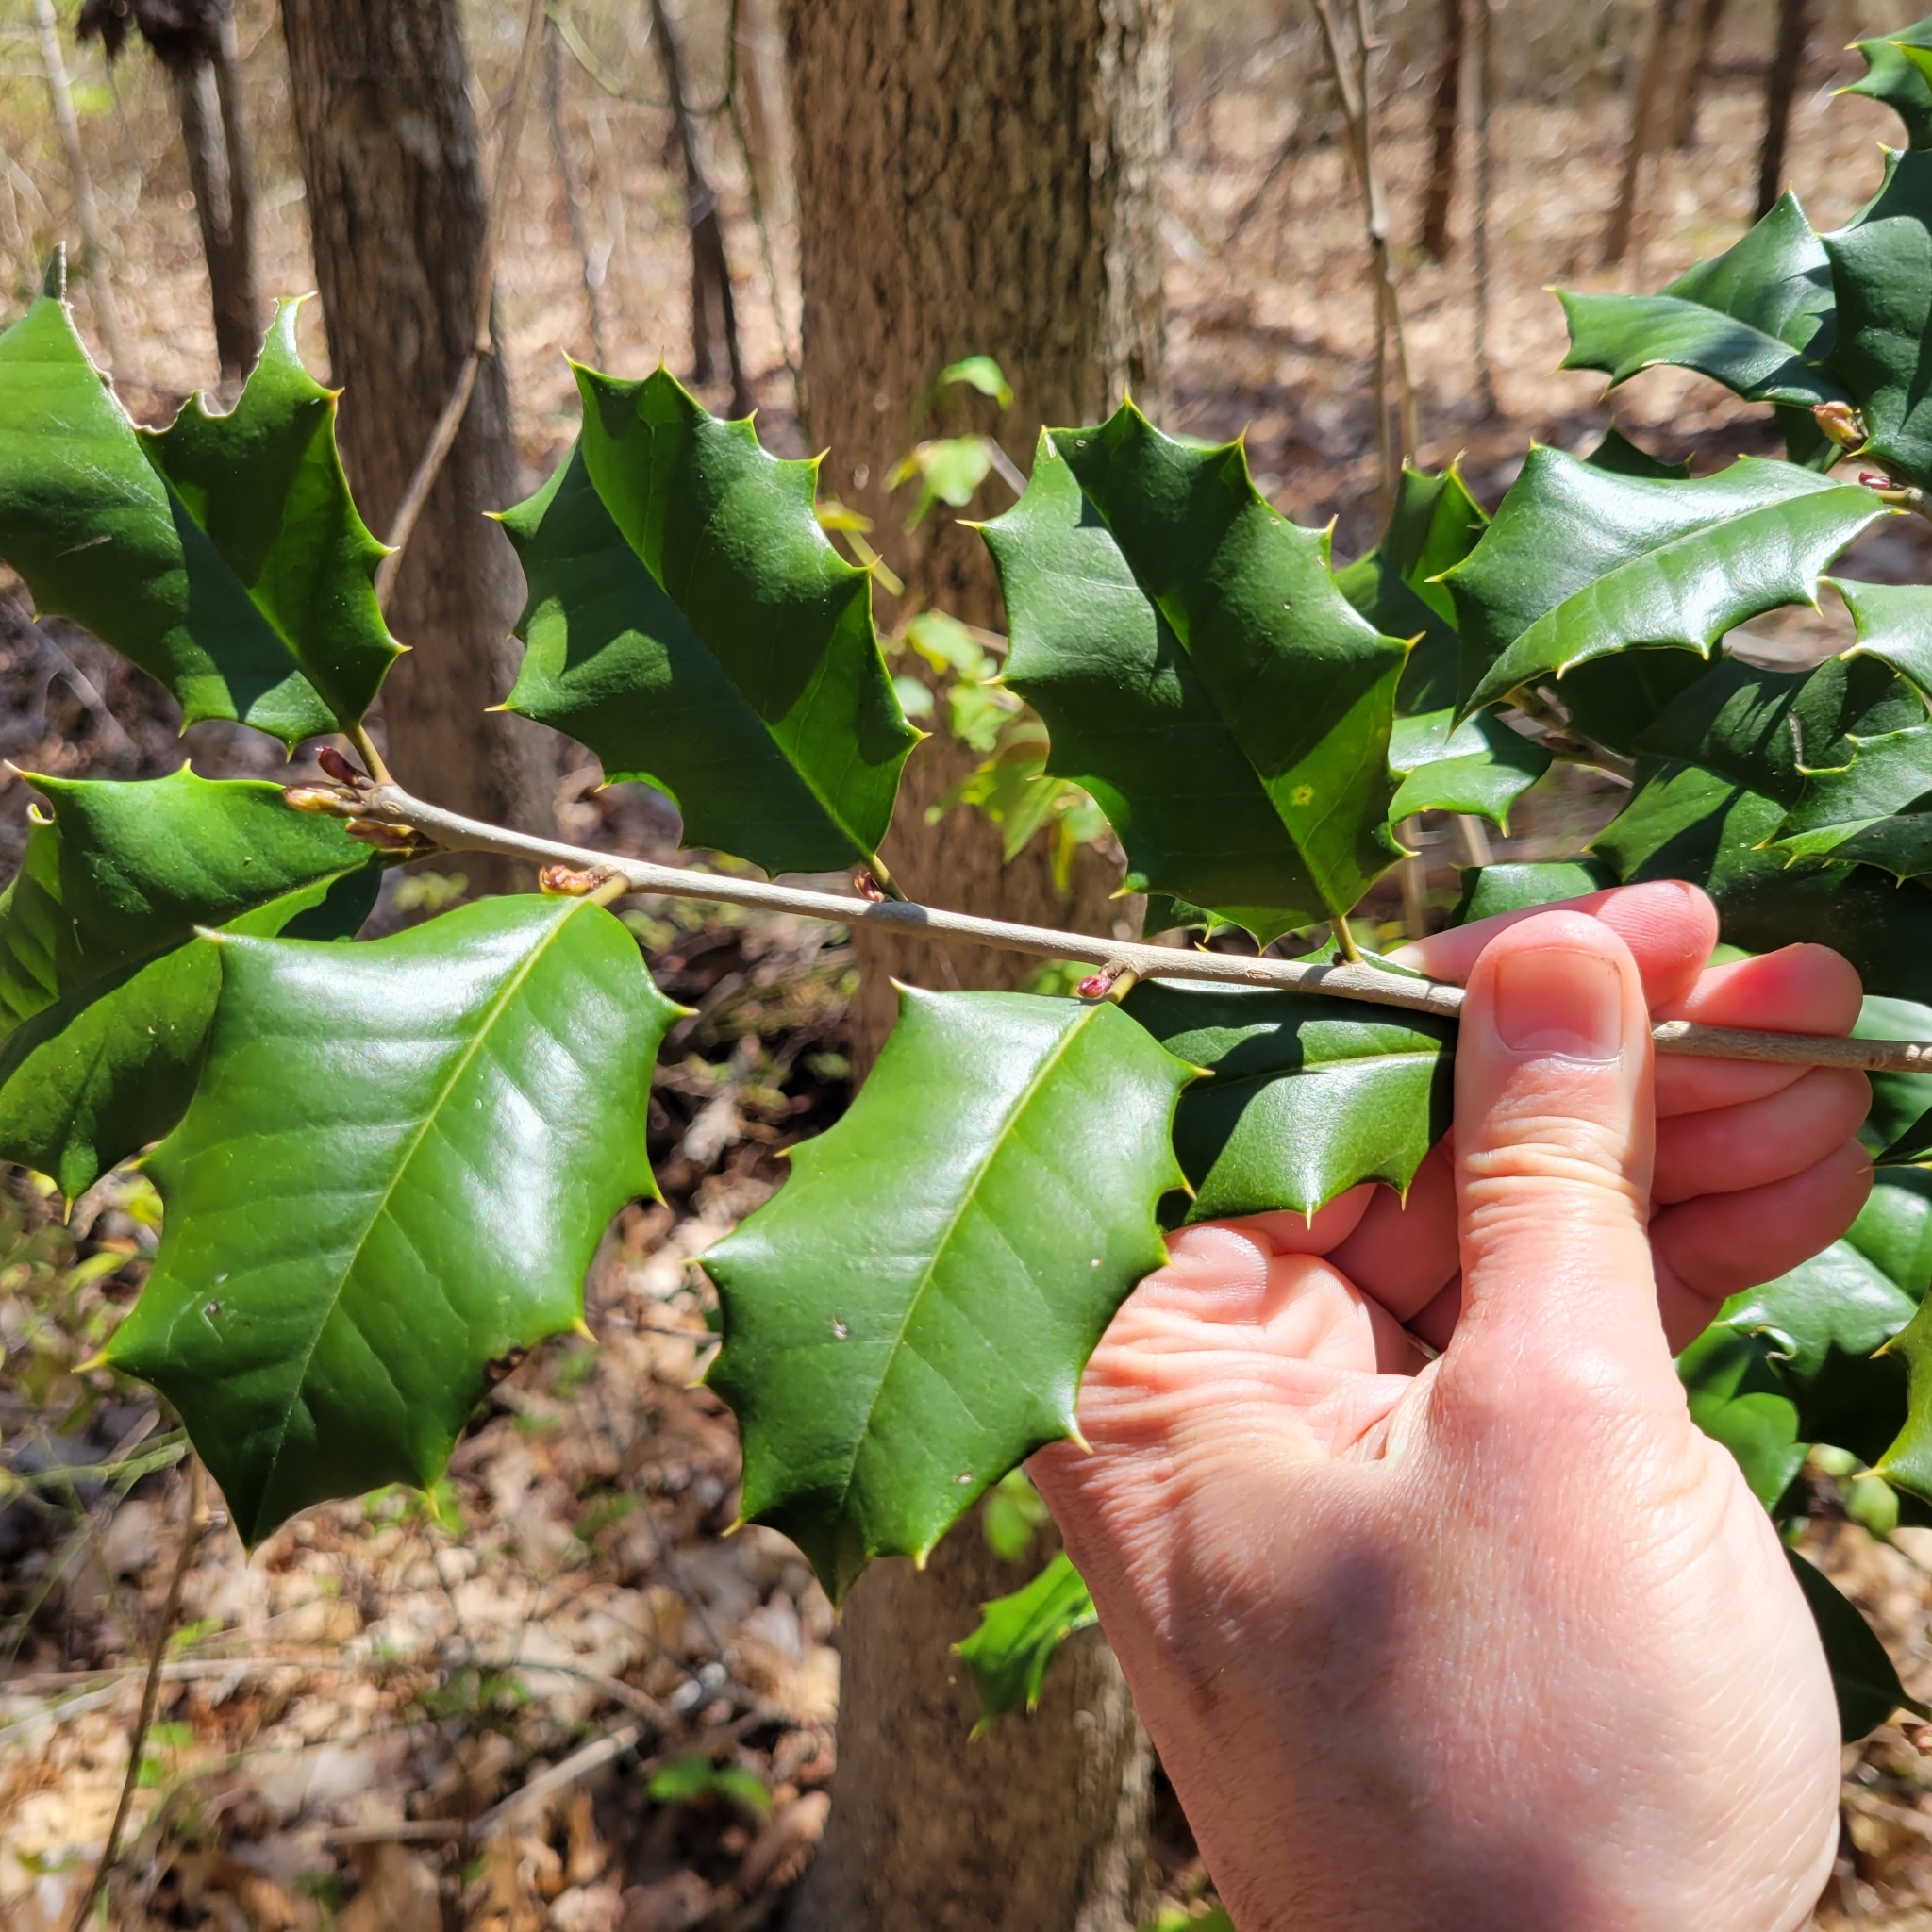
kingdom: Plantae
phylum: Tracheophyta
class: Magnoliopsida
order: Aquifoliales
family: Aquifoliaceae
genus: Ilex
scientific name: Ilex opaca
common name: American holly
